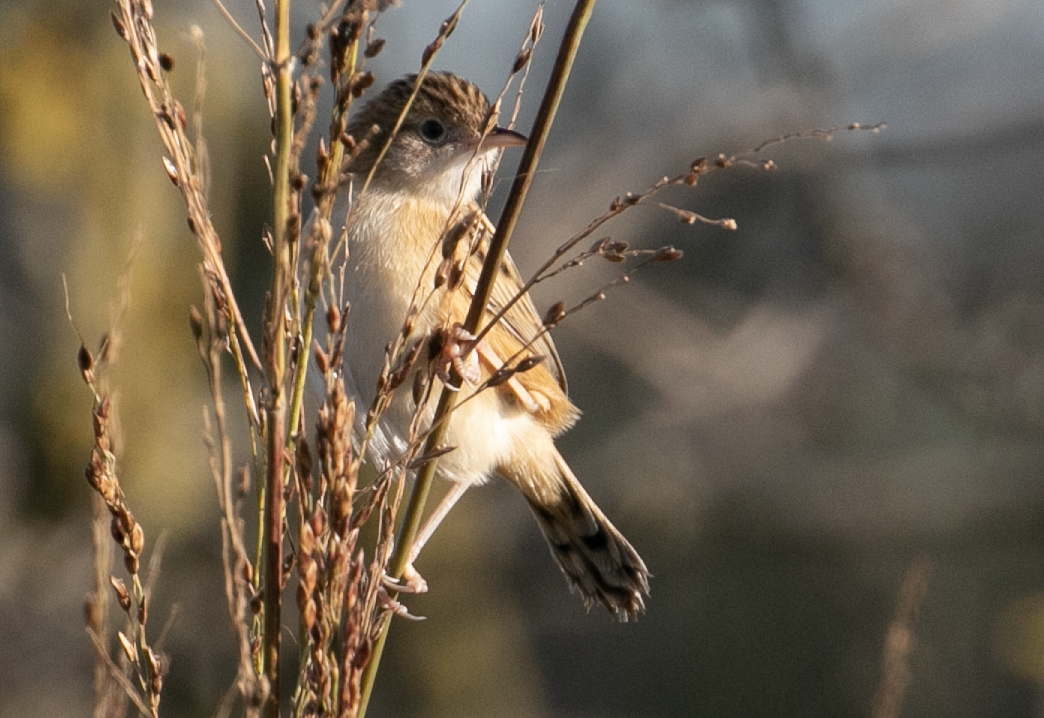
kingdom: Animalia
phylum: Chordata
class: Aves
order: Passeriformes
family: Cisticolidae
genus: Cisticola
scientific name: Cisticola juncidis
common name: Zitting cisticola
